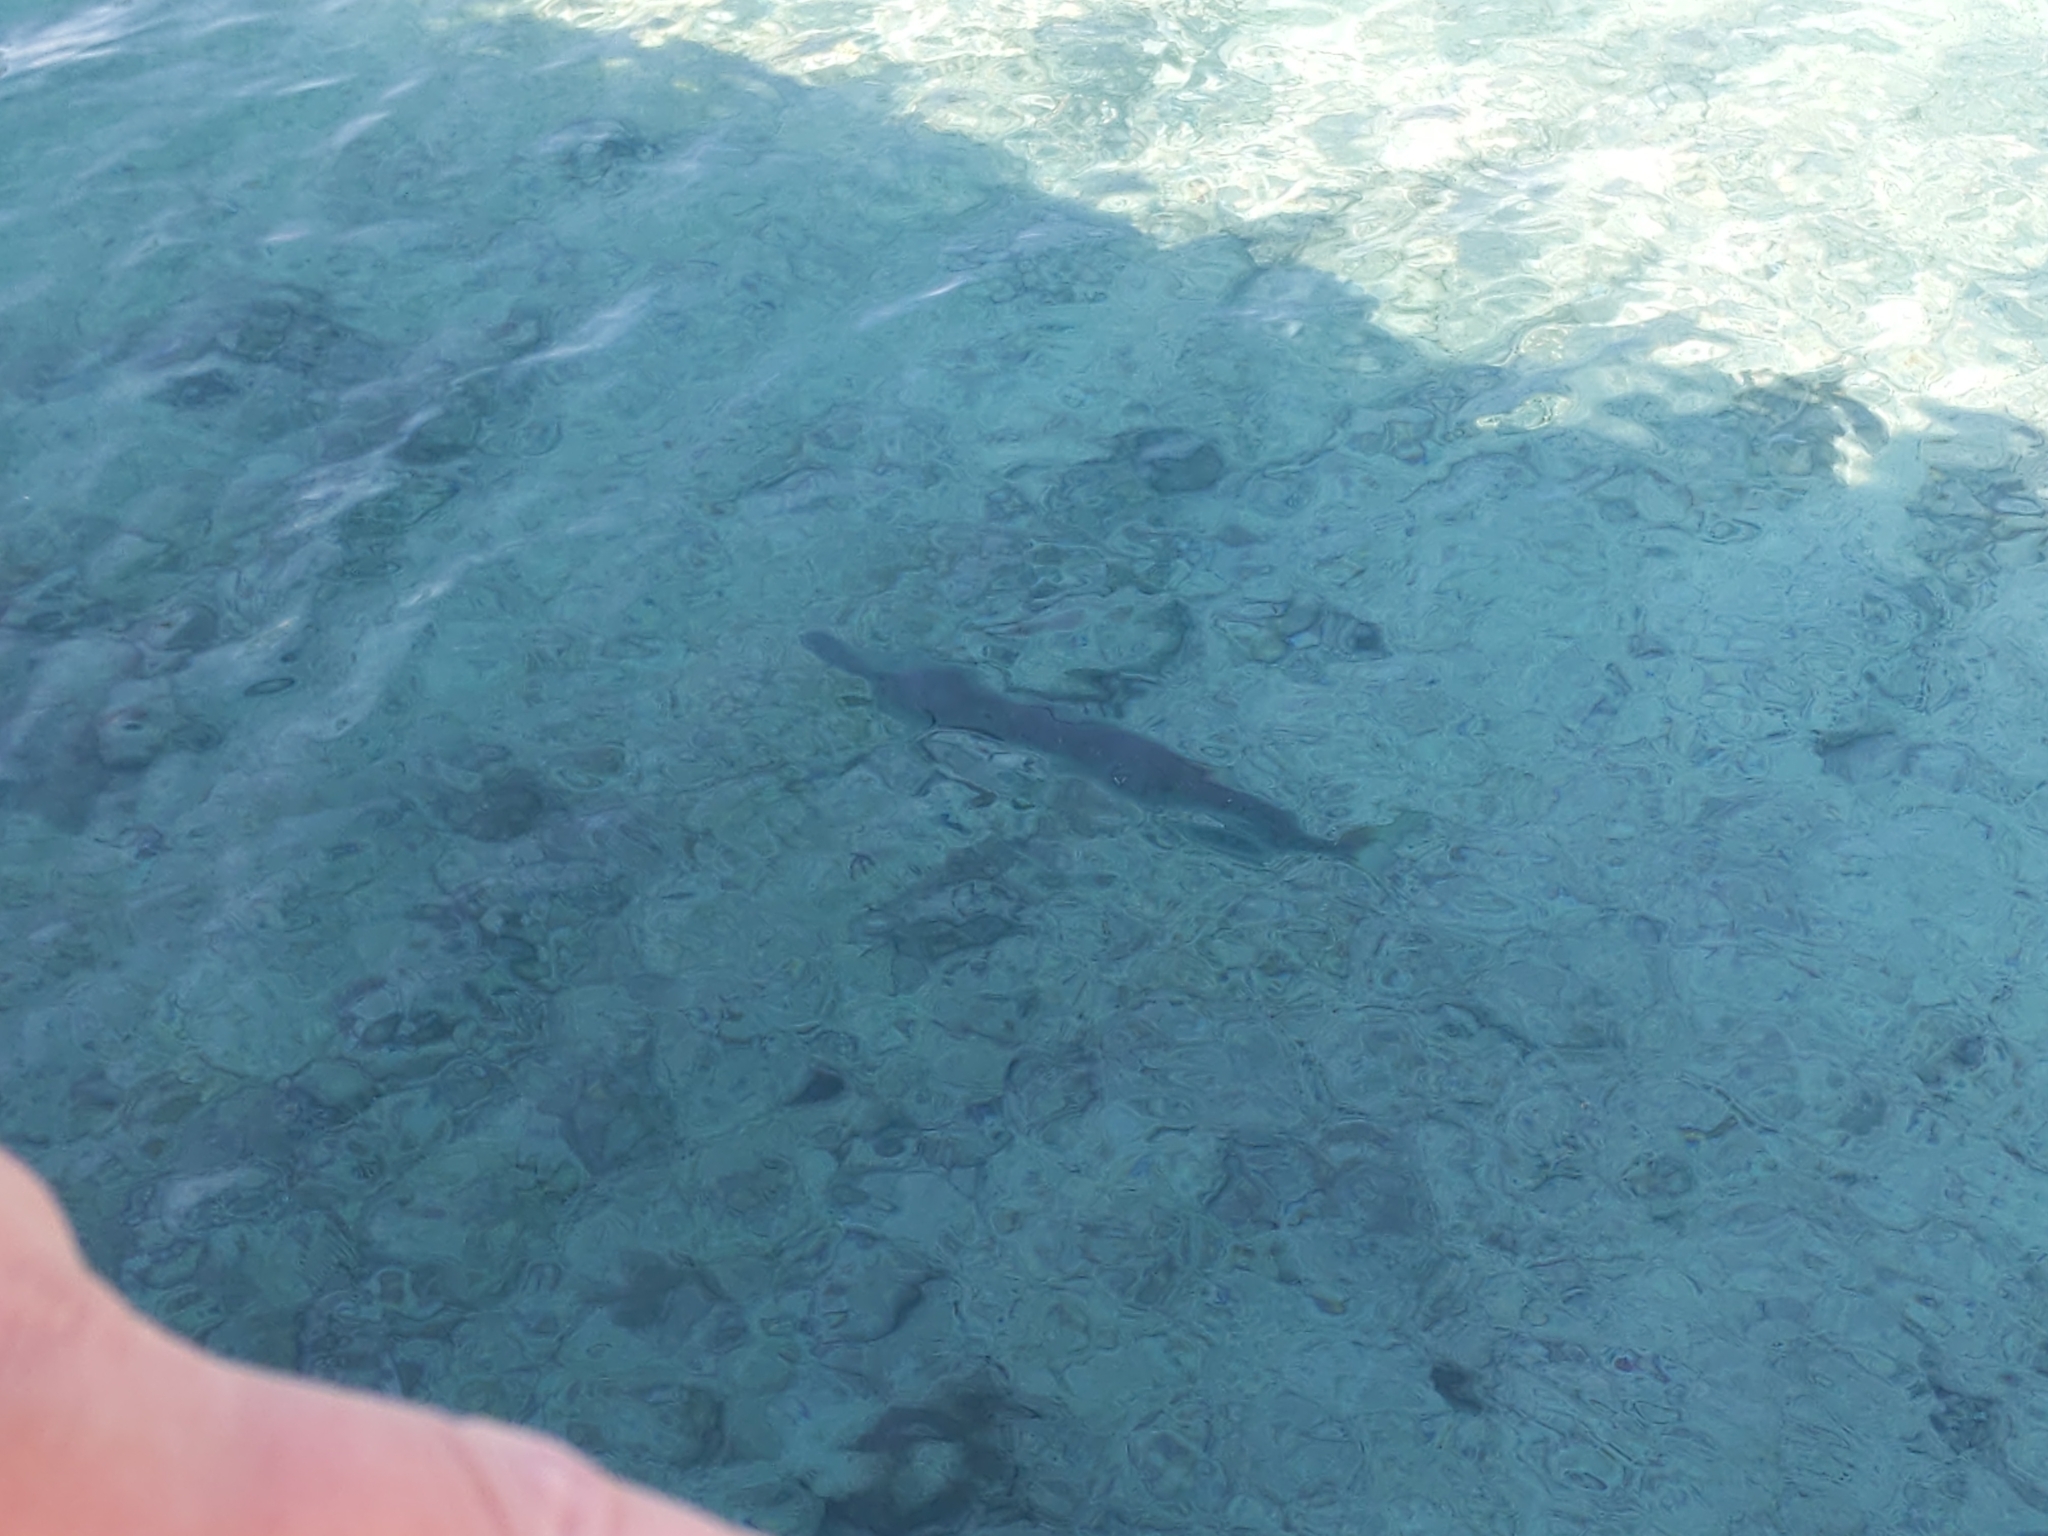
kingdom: Animalia
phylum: Chordata
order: Perciformes
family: Sphyraenidae
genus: Sphyraena
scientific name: Sphyraena barracuda
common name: Great barracuda
